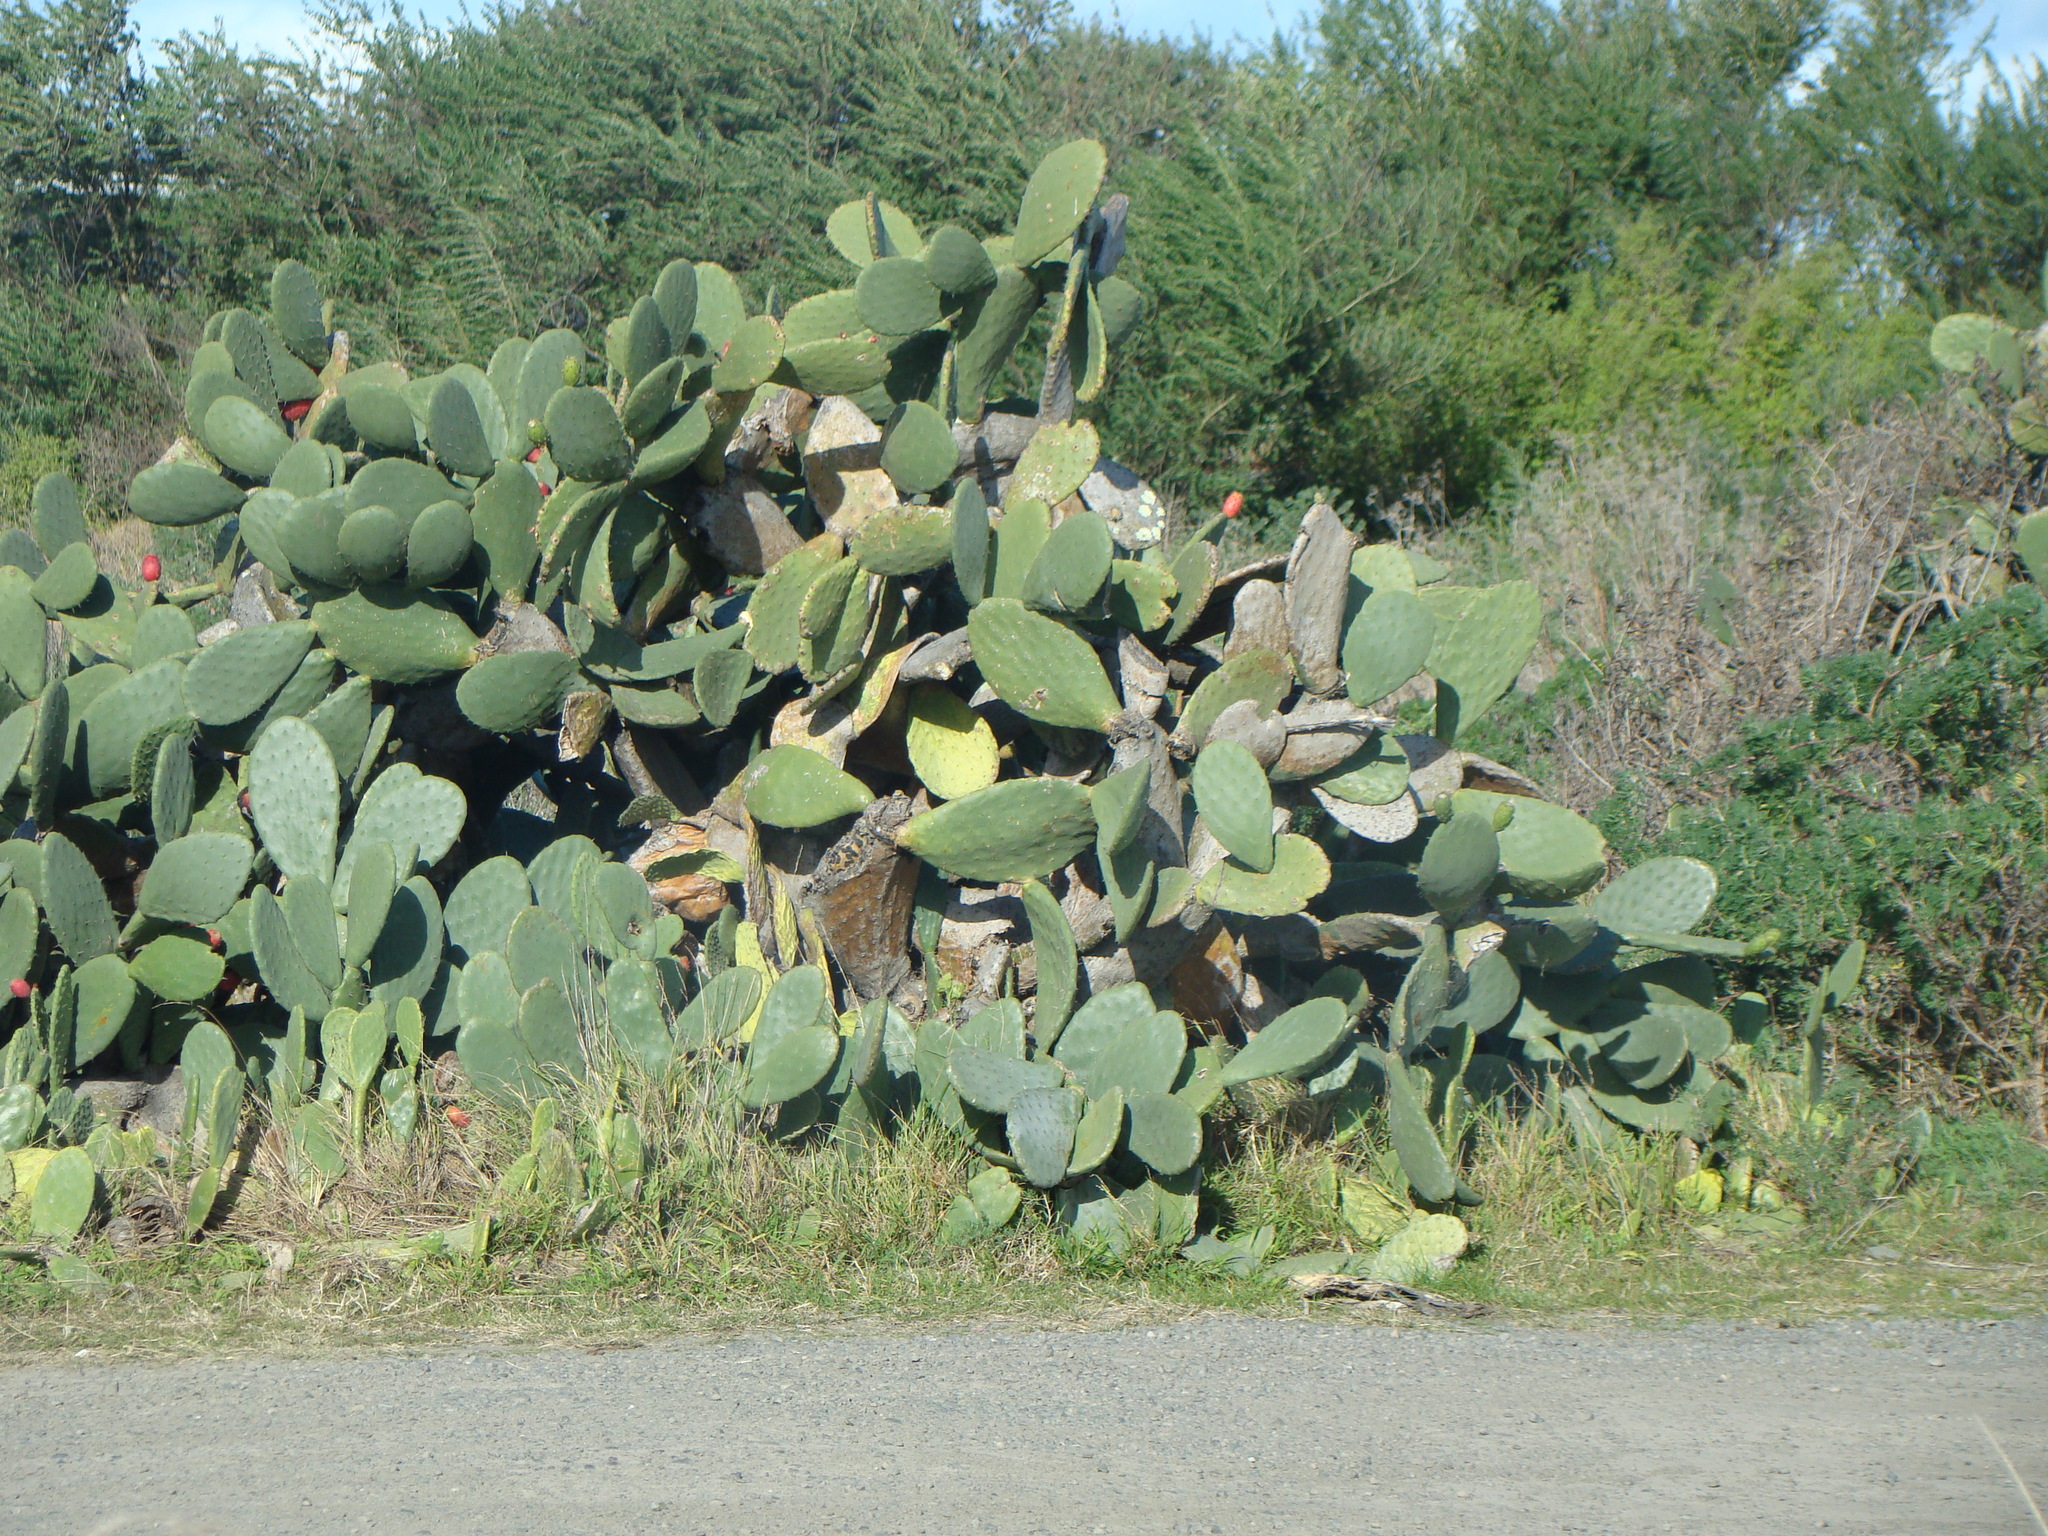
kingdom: Plantae
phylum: Tracheophyta
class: Magnoliopsida
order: Caryophyllales
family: Cactaceae
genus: Opuntia
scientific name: Opuntia ficus-indica
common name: Barbary fig
